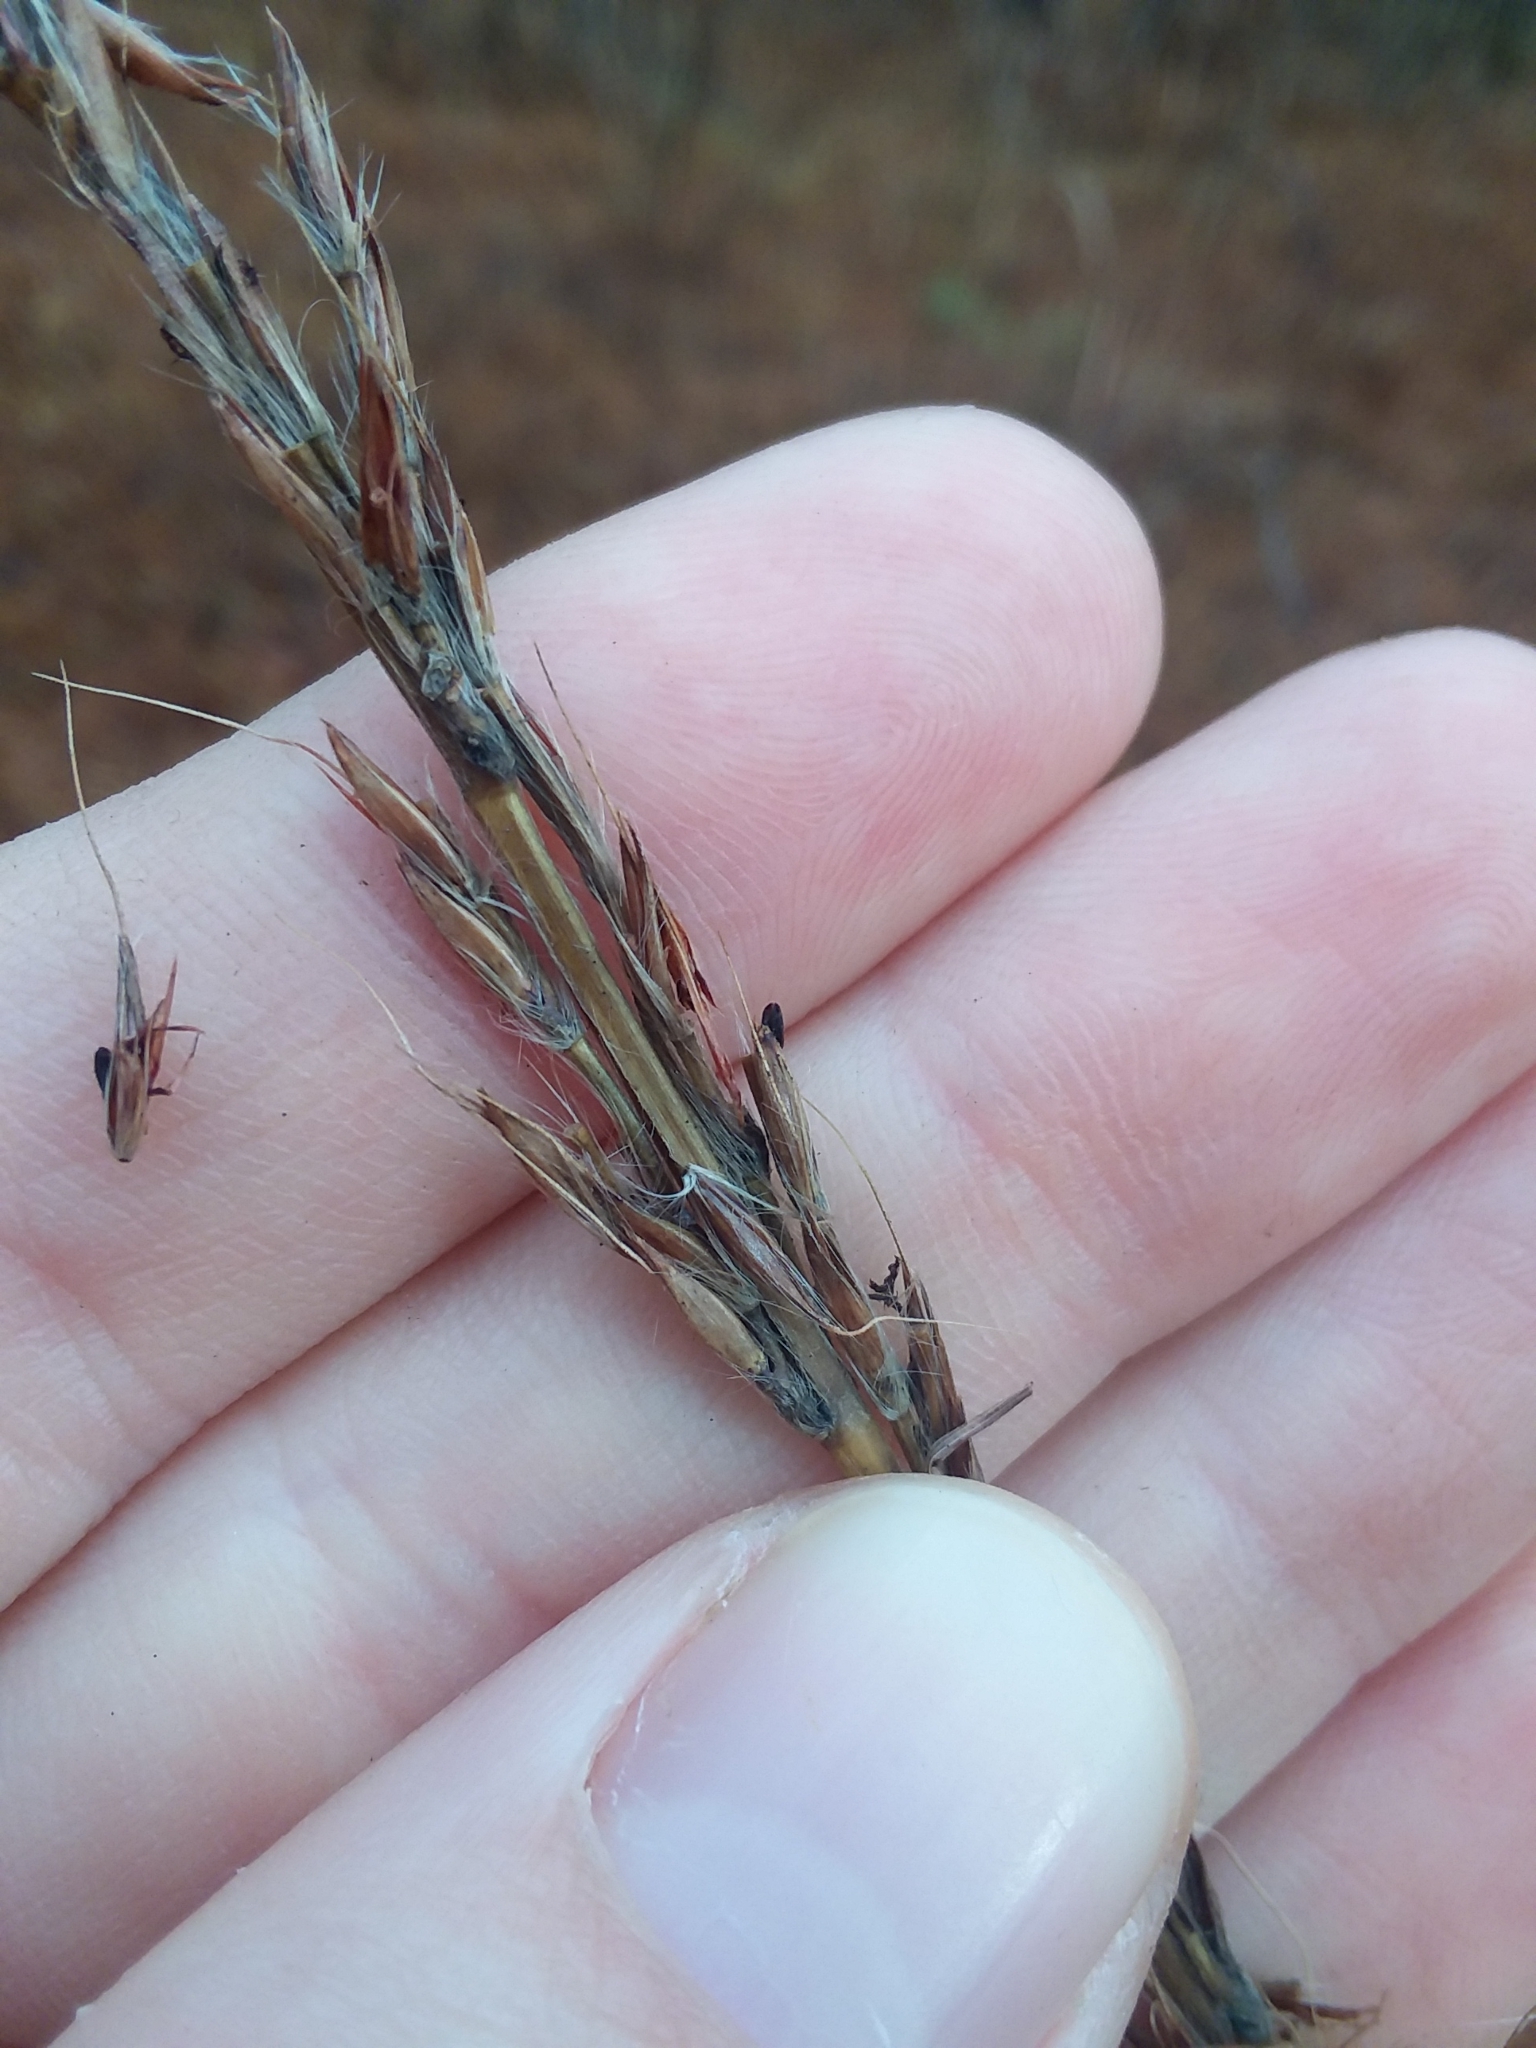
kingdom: Plantae
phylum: Tracheophyta
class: Liliopsida
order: Poales
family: Poaceae
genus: Erianthus
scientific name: Erianthus contortus
